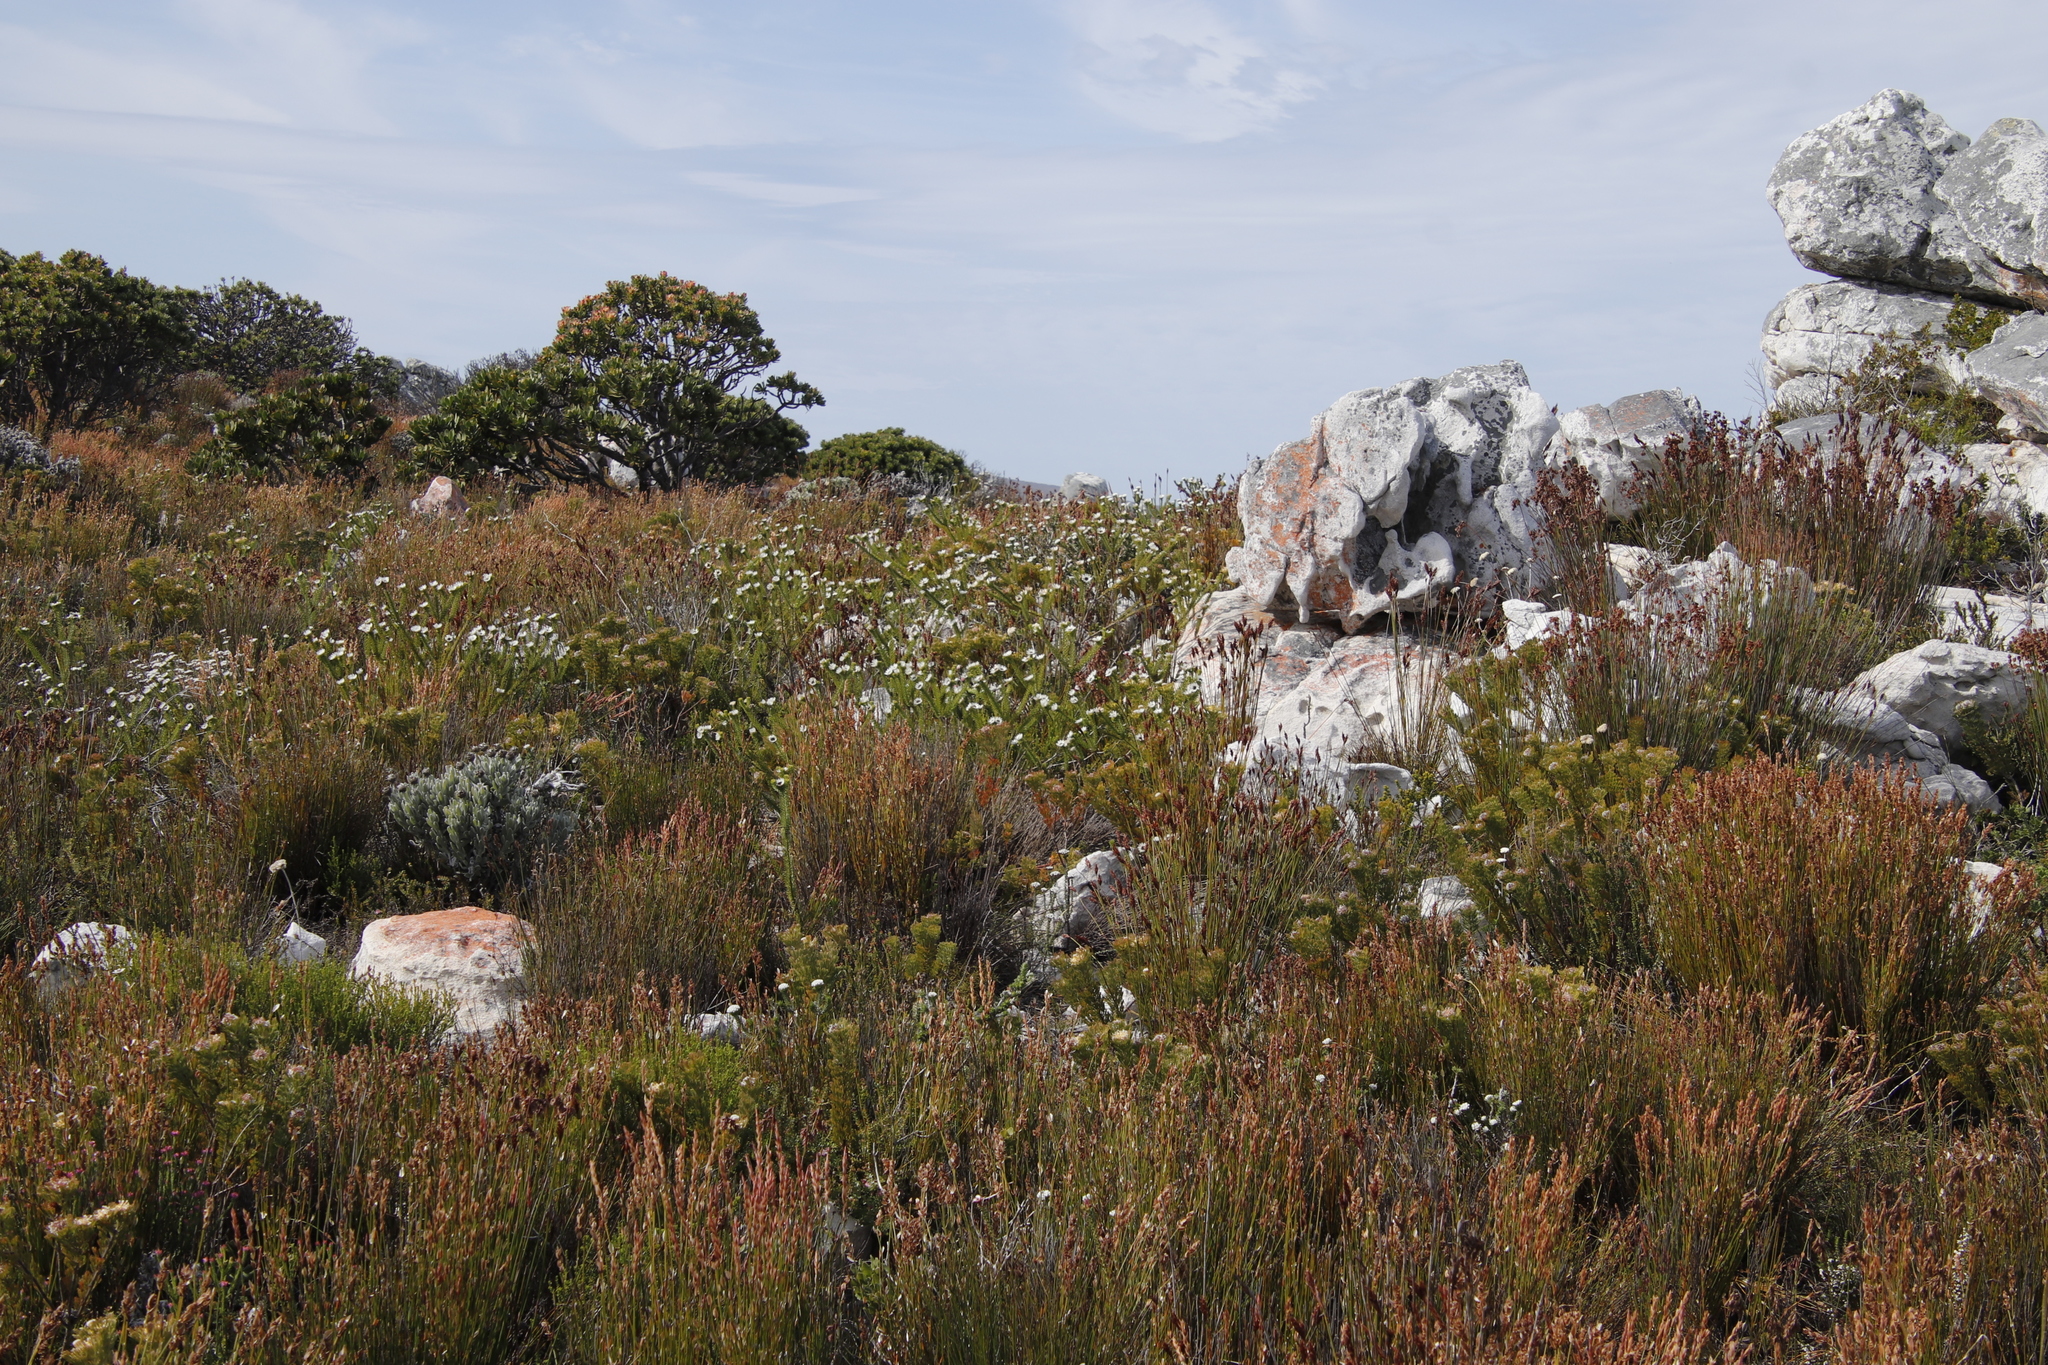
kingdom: Plantae
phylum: Tracheophyta
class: Magnoliopsida
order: Bruniales
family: Bruniaceae
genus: Staavia
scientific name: Staavia dodii
